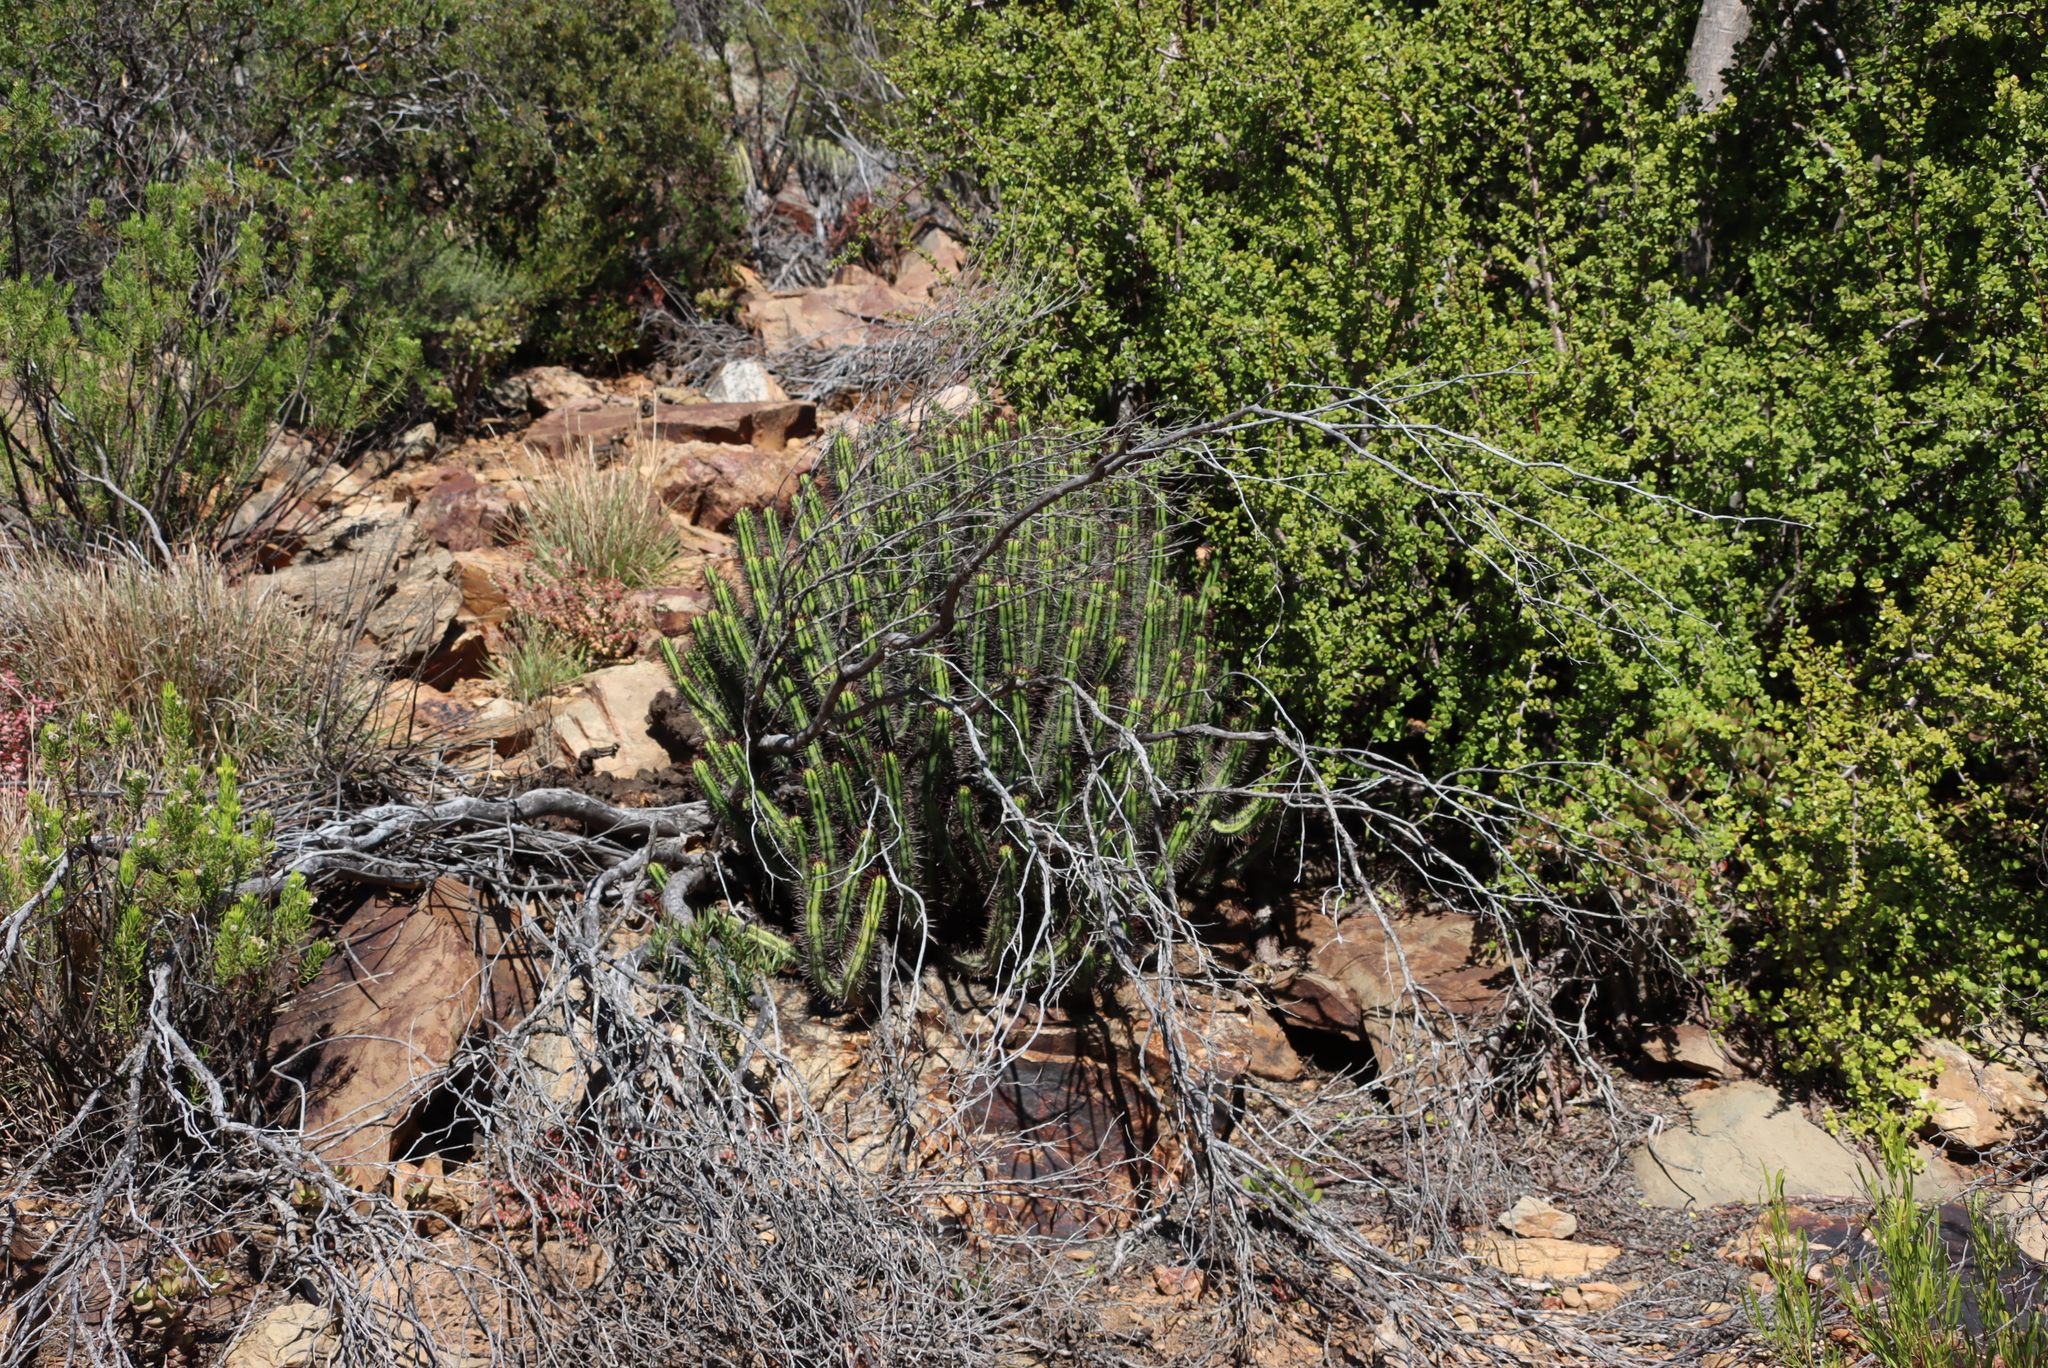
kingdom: Plantae
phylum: Tracheophyta
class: Magnoliopsida
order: Caryophyllales
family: Didiereaceae
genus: Portulacaria
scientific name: Portulacaria afra
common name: Elephant-bush
